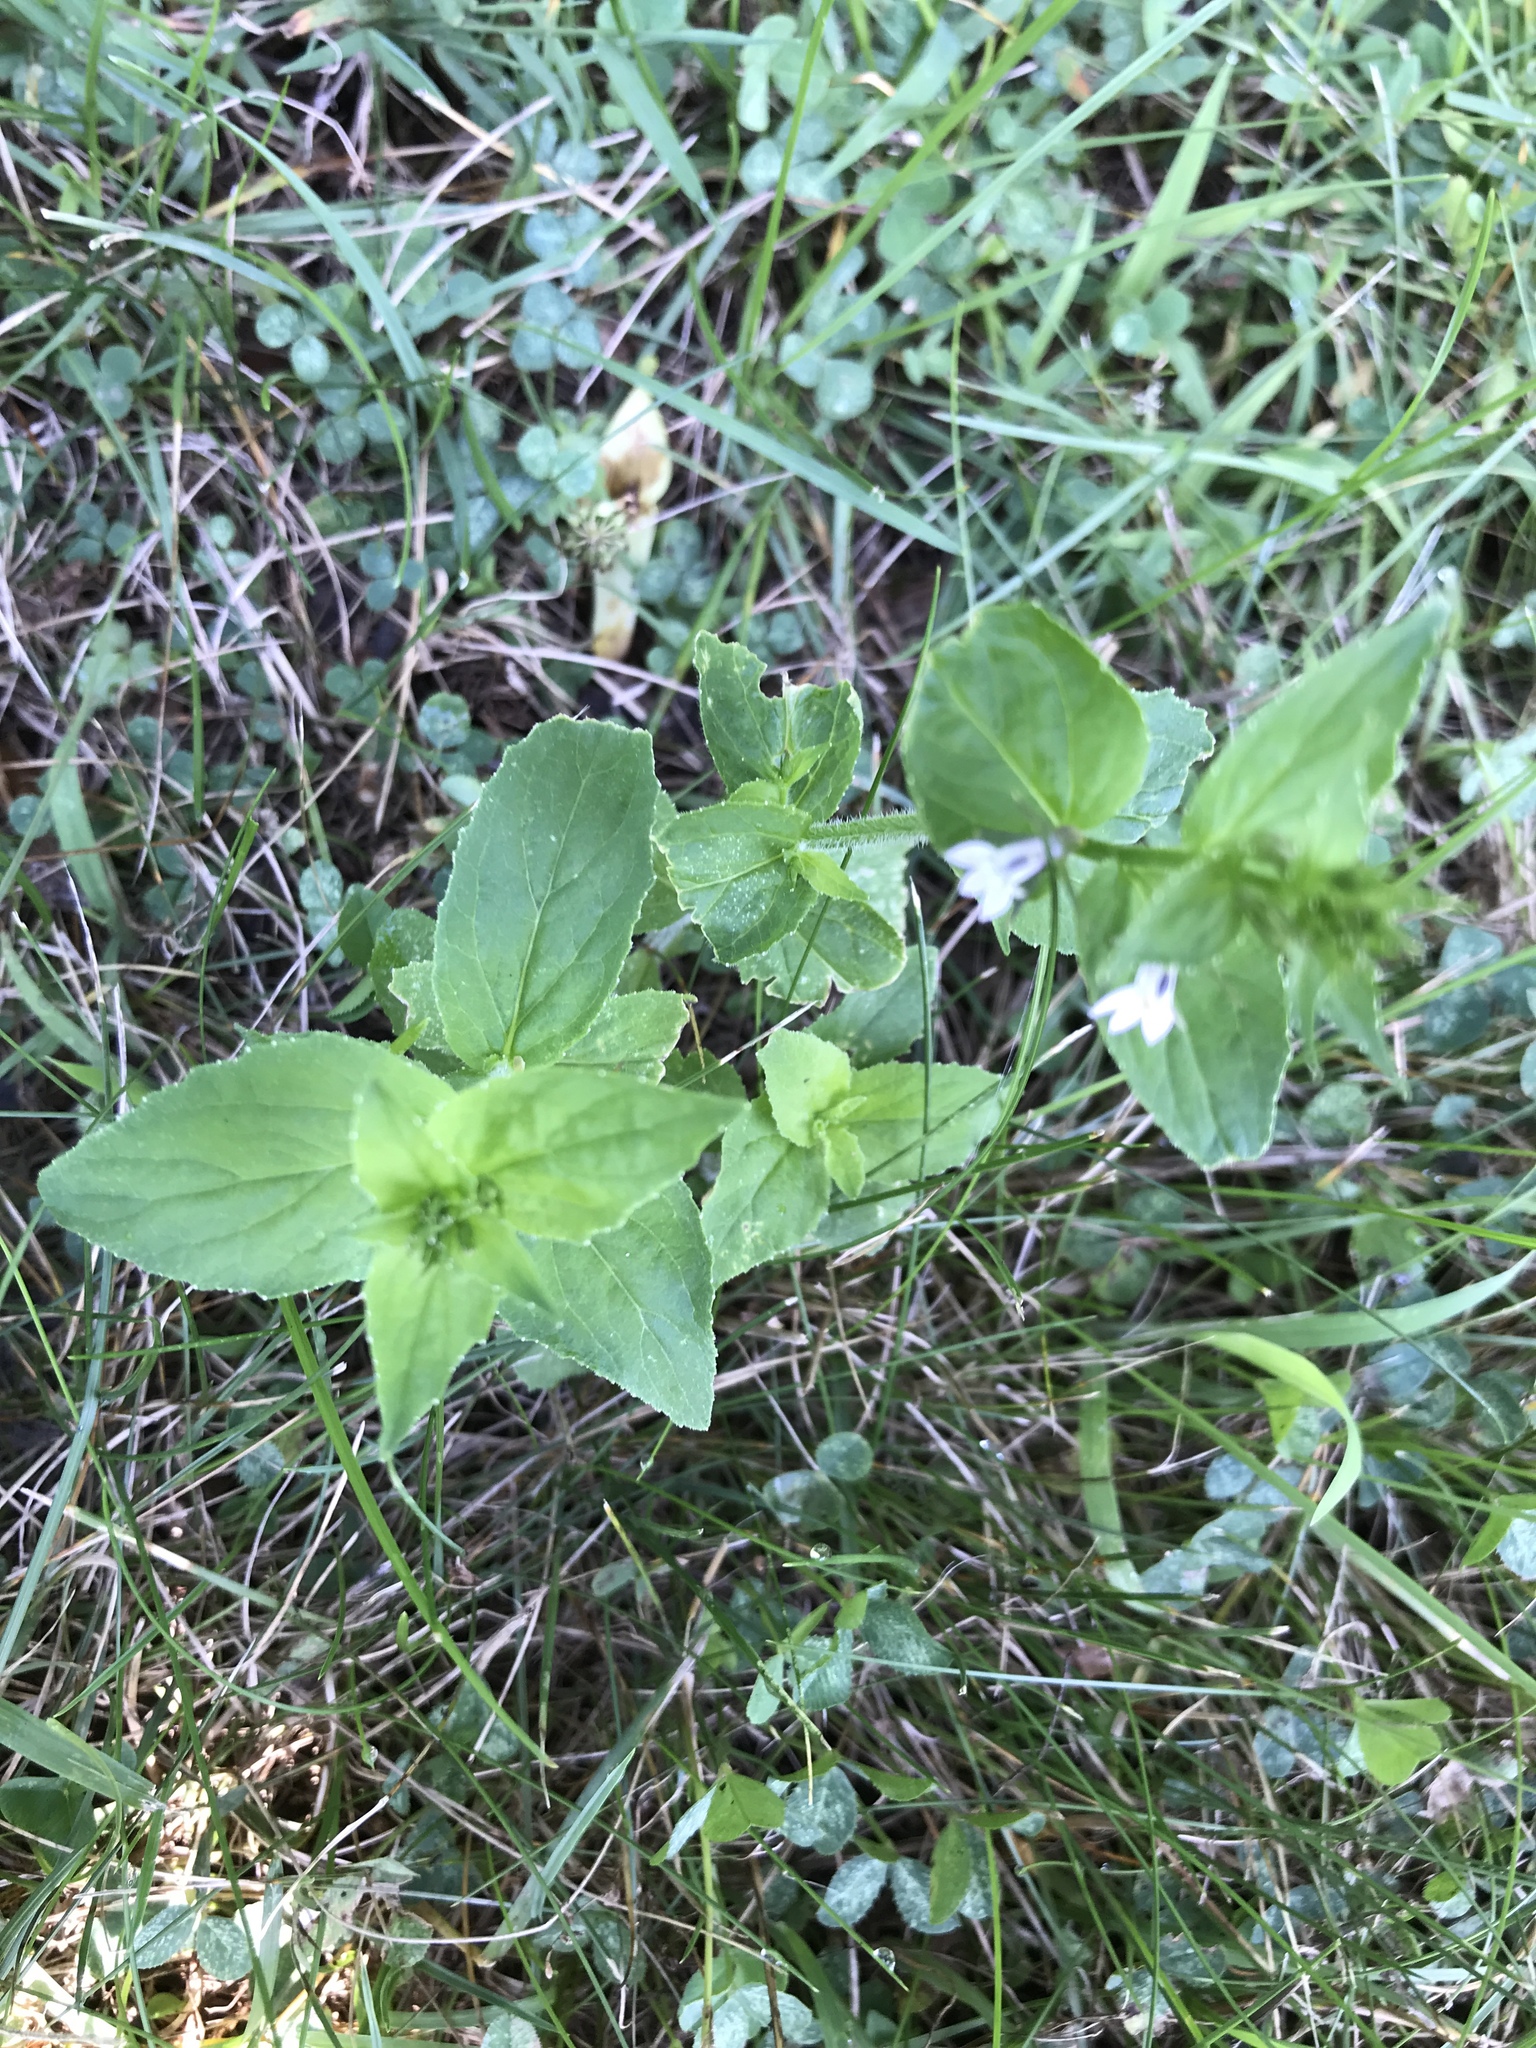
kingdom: Plantae
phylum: Tracheophyta
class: Magnoliopsida
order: Asterales
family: Campanulaceae
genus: Lobelia
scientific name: Lobelia inflata
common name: Indian tobacco
